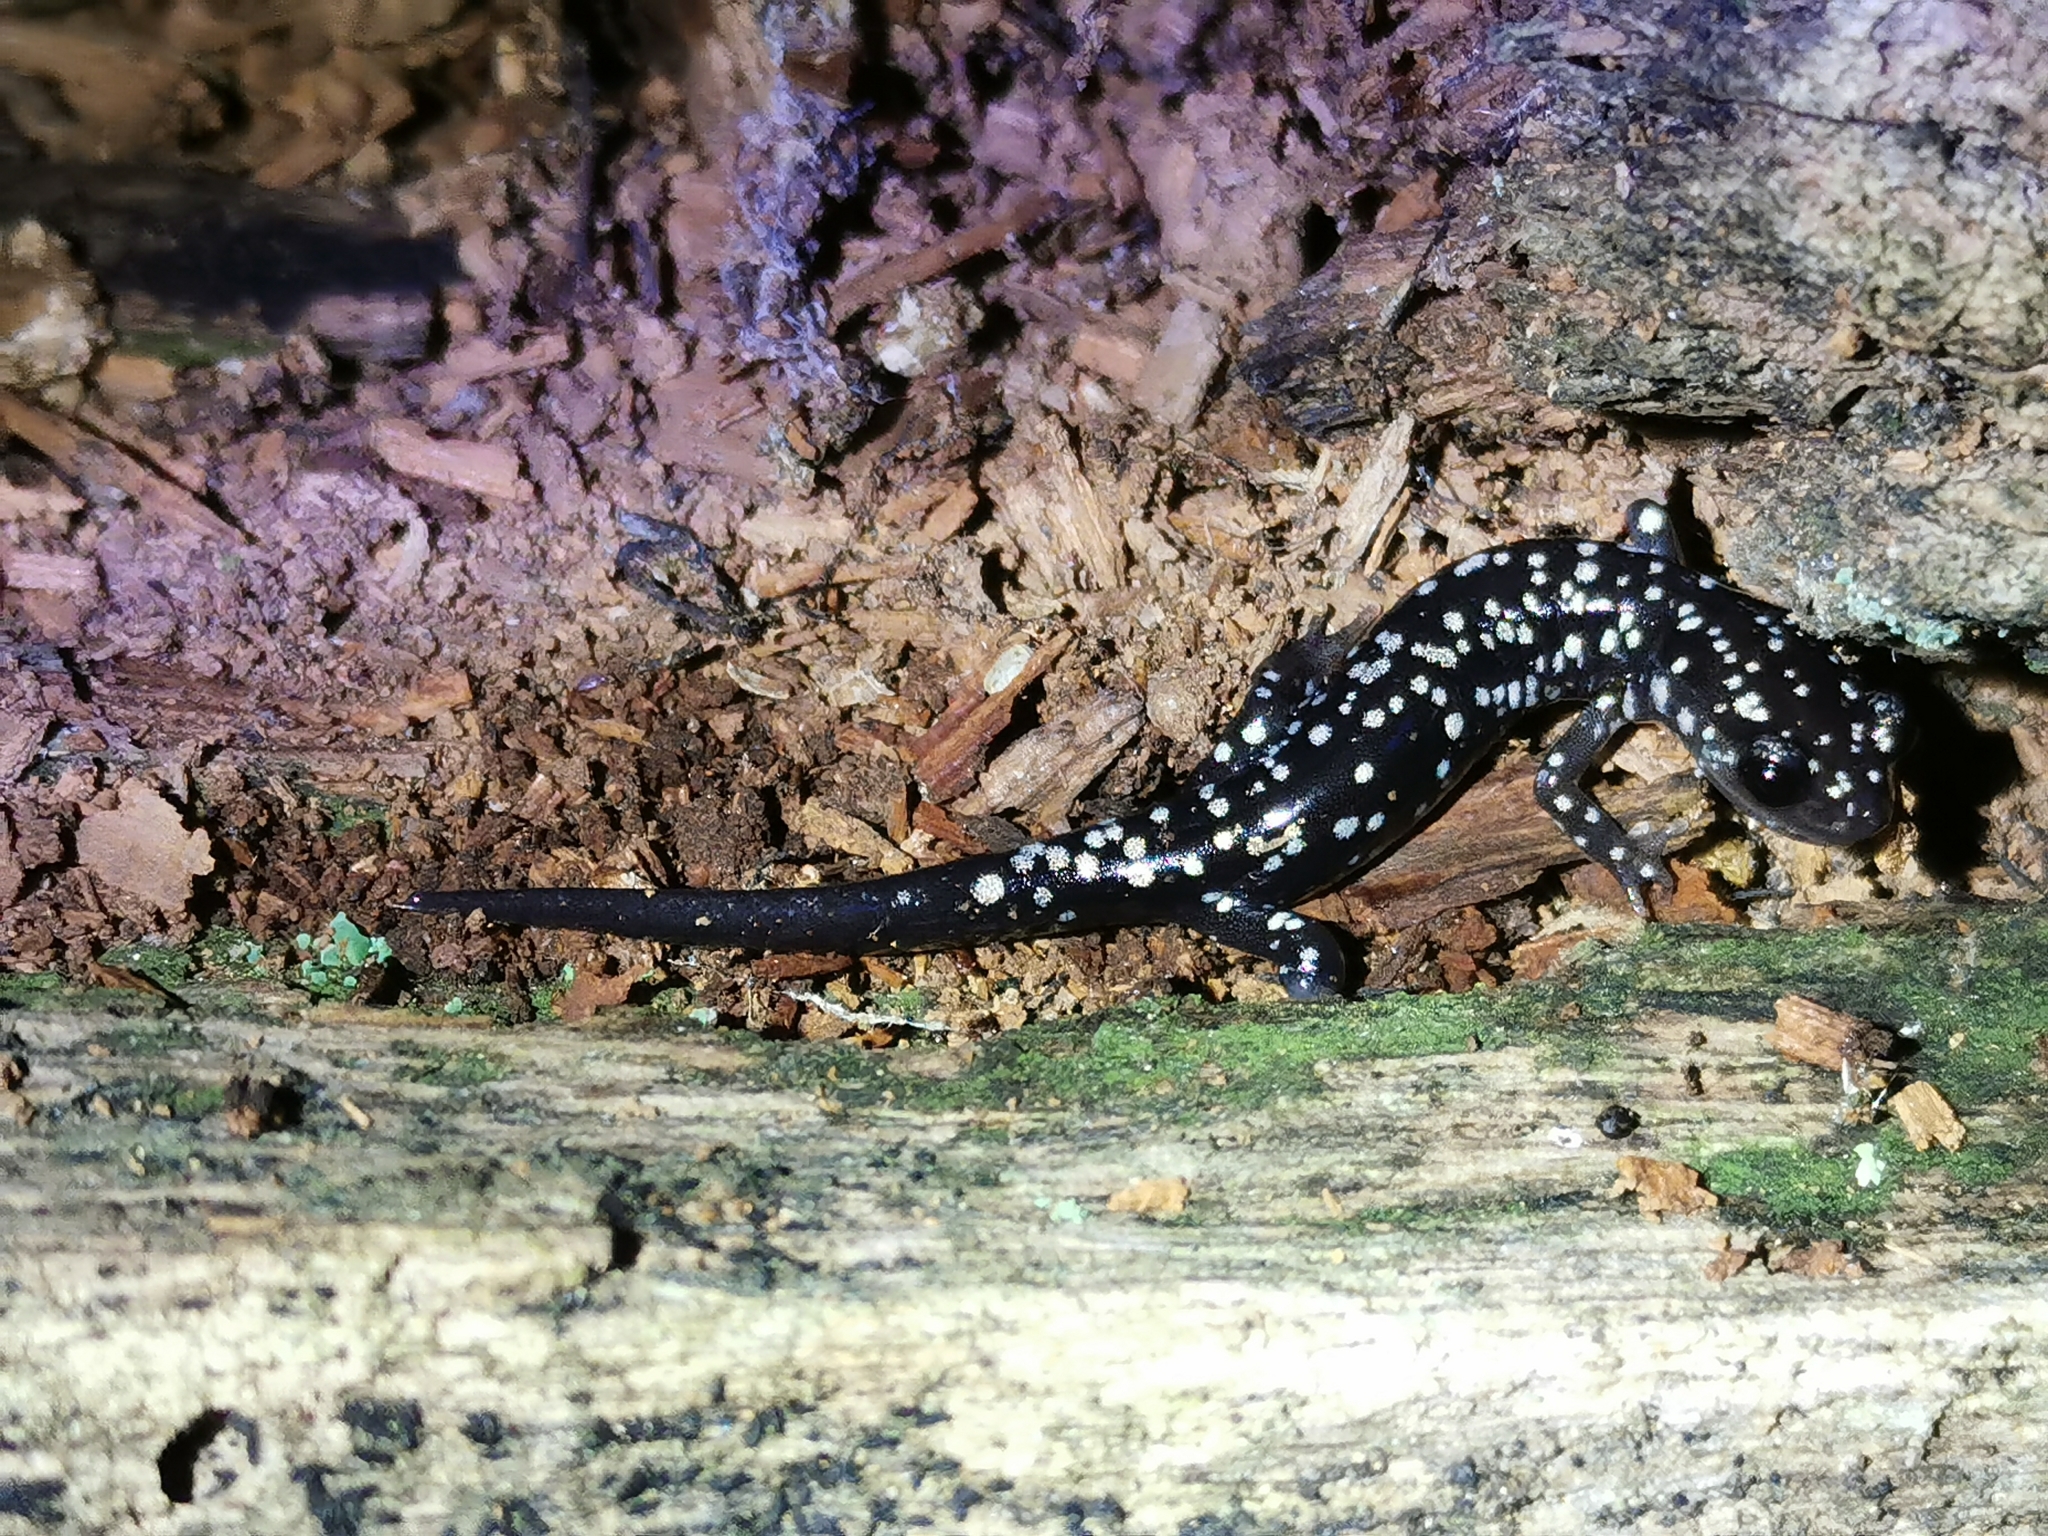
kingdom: Animalia
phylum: Chordata
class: Amphibia
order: Caudata
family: Plethodontidae
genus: Plethodon
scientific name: Plethodon glutinosus
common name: Northern slimy salamander
